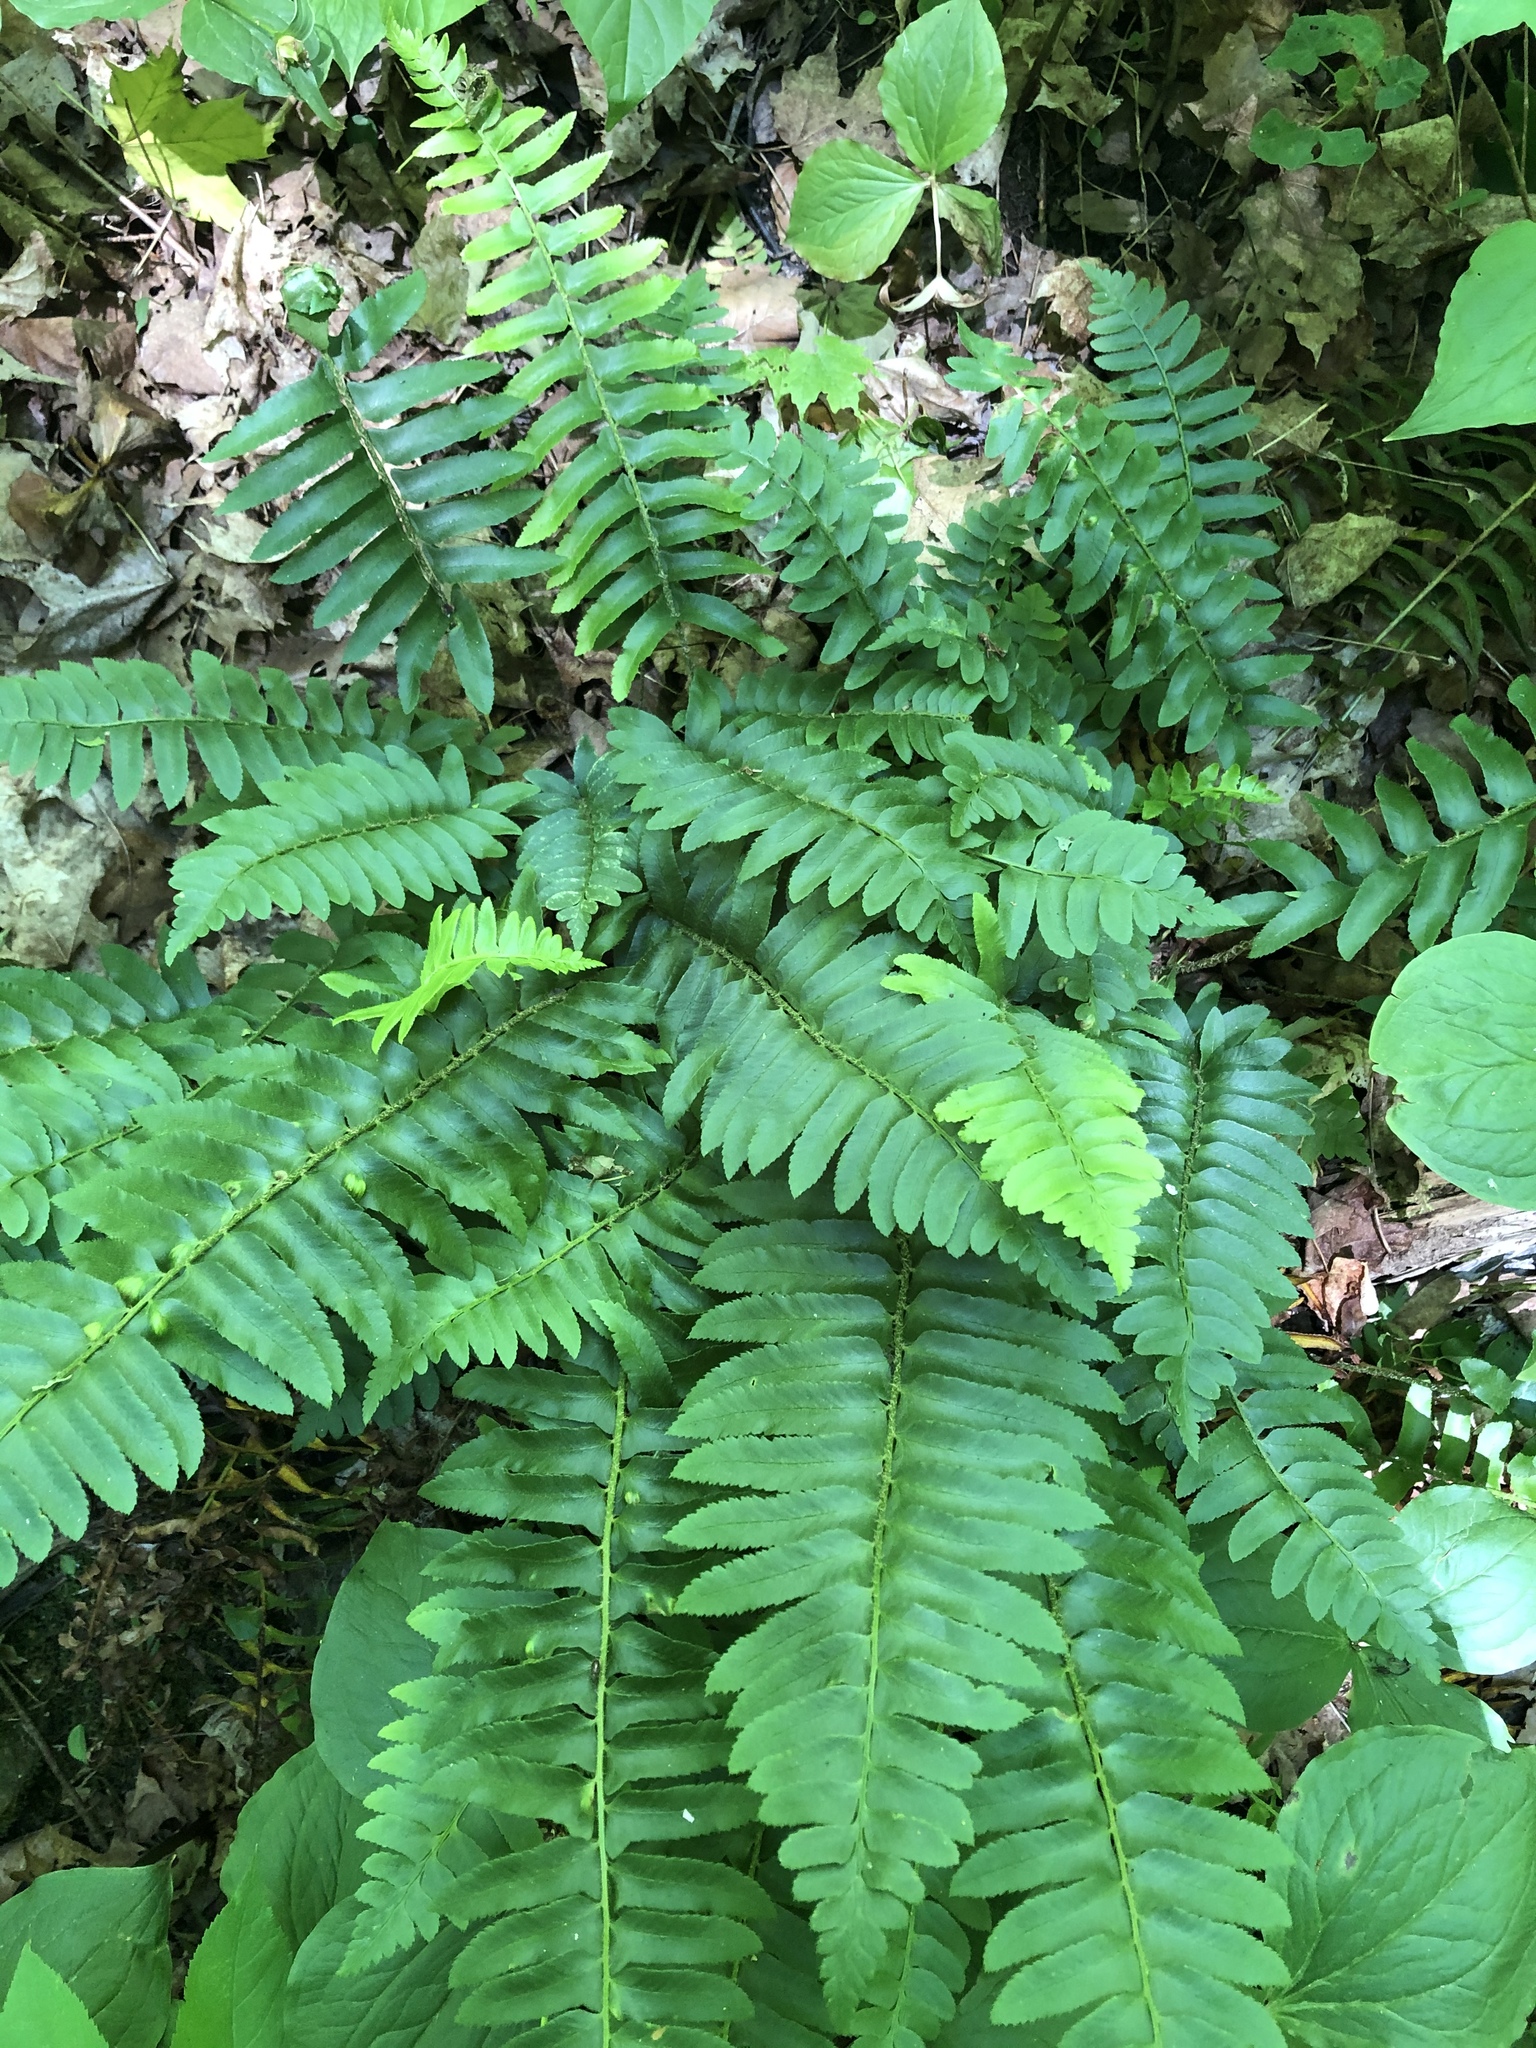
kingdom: Plantae
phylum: Tracheophyta
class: Polypodiopsida
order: Polypodiales
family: Dryopteridaceae
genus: Polystichum
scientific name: Polystichum acrostichoides
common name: Christmas fern
